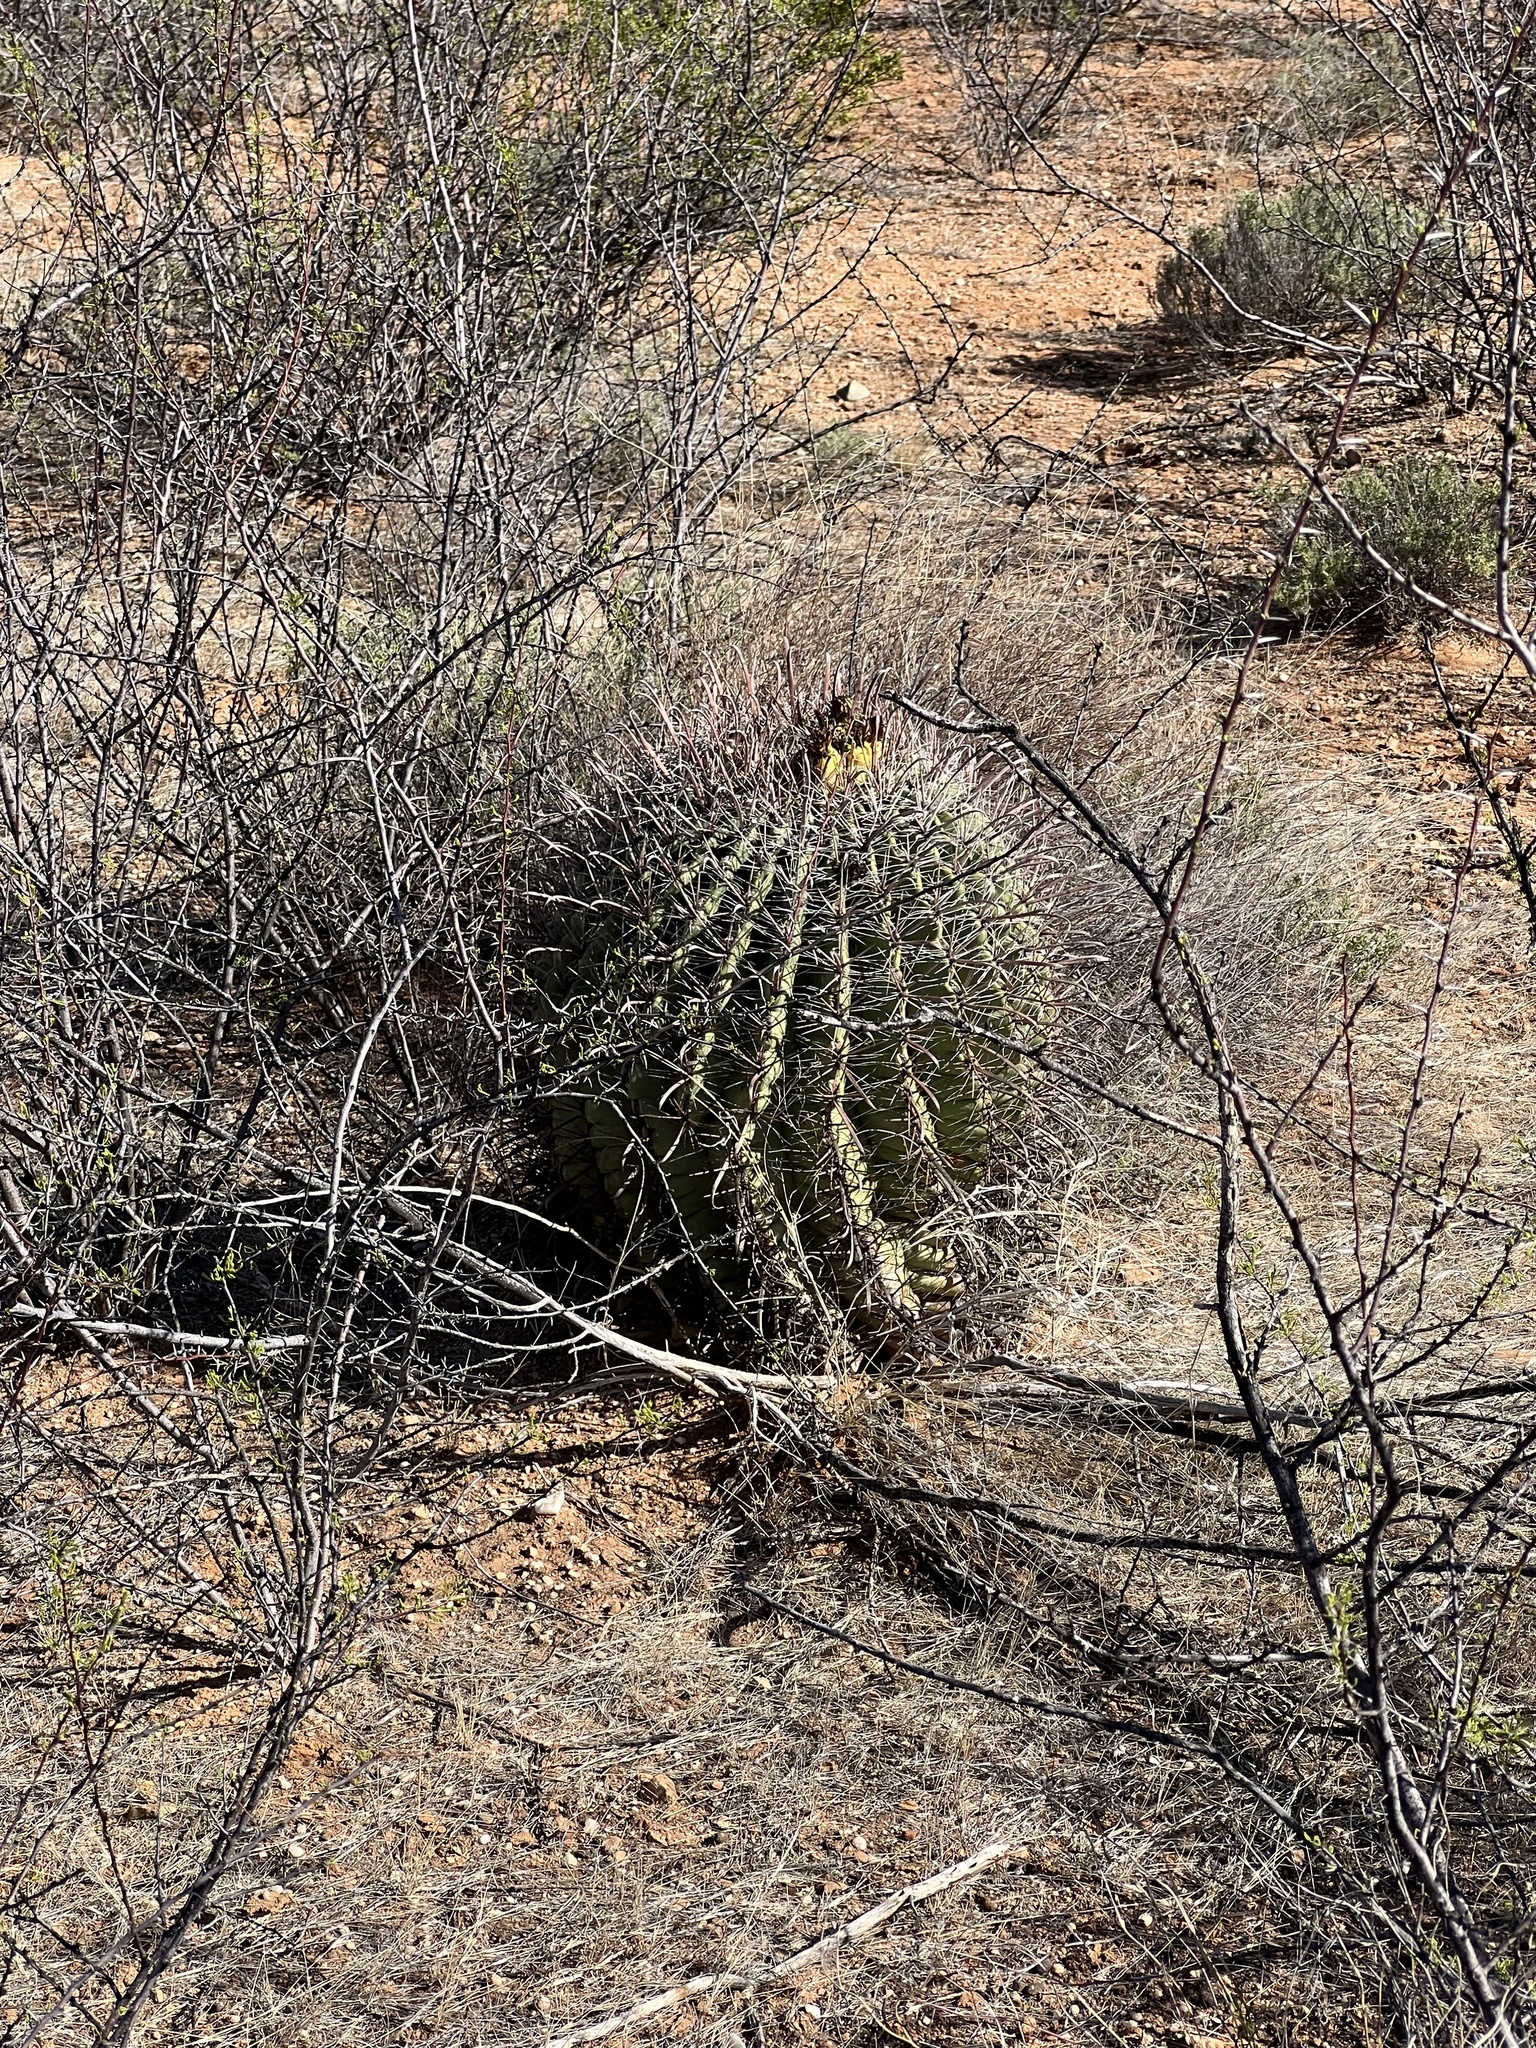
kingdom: Plantae
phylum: Tracheophyta
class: Magnoliopsida
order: Caryophyllales
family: Cactaceae
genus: Ferocactus
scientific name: Ferocactus wislizeni
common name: Candy barrel cactus
